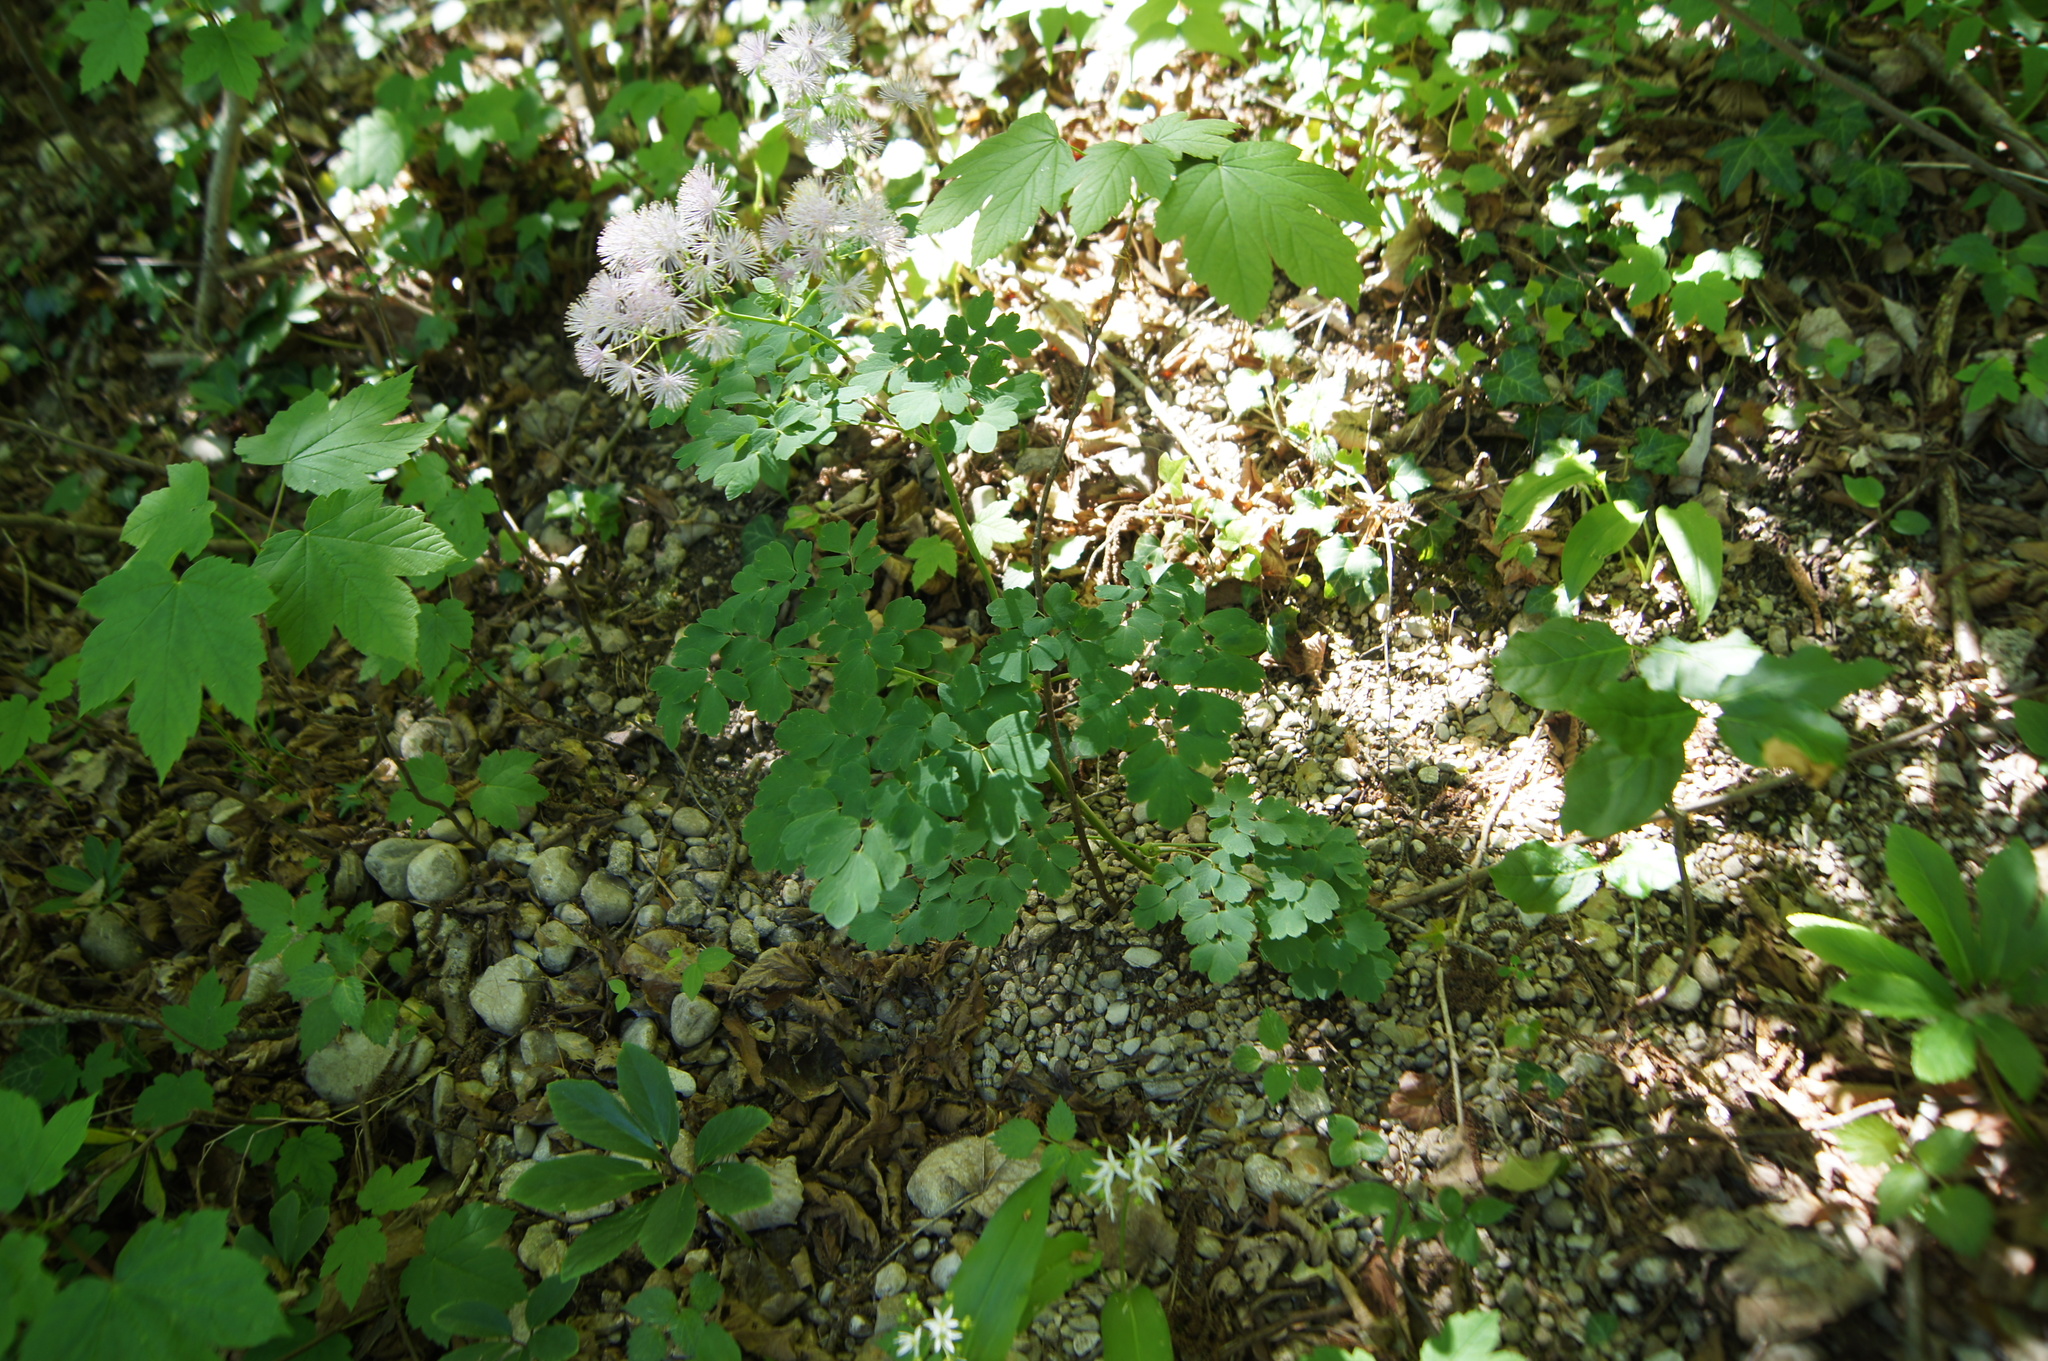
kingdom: Plantae
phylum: Tracheophyta
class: Magnoliopsida
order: Ranunculales
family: Ranunculaceae
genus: Thalictrum
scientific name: Thalictrum aquilegiifolium
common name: French meadow-rue
